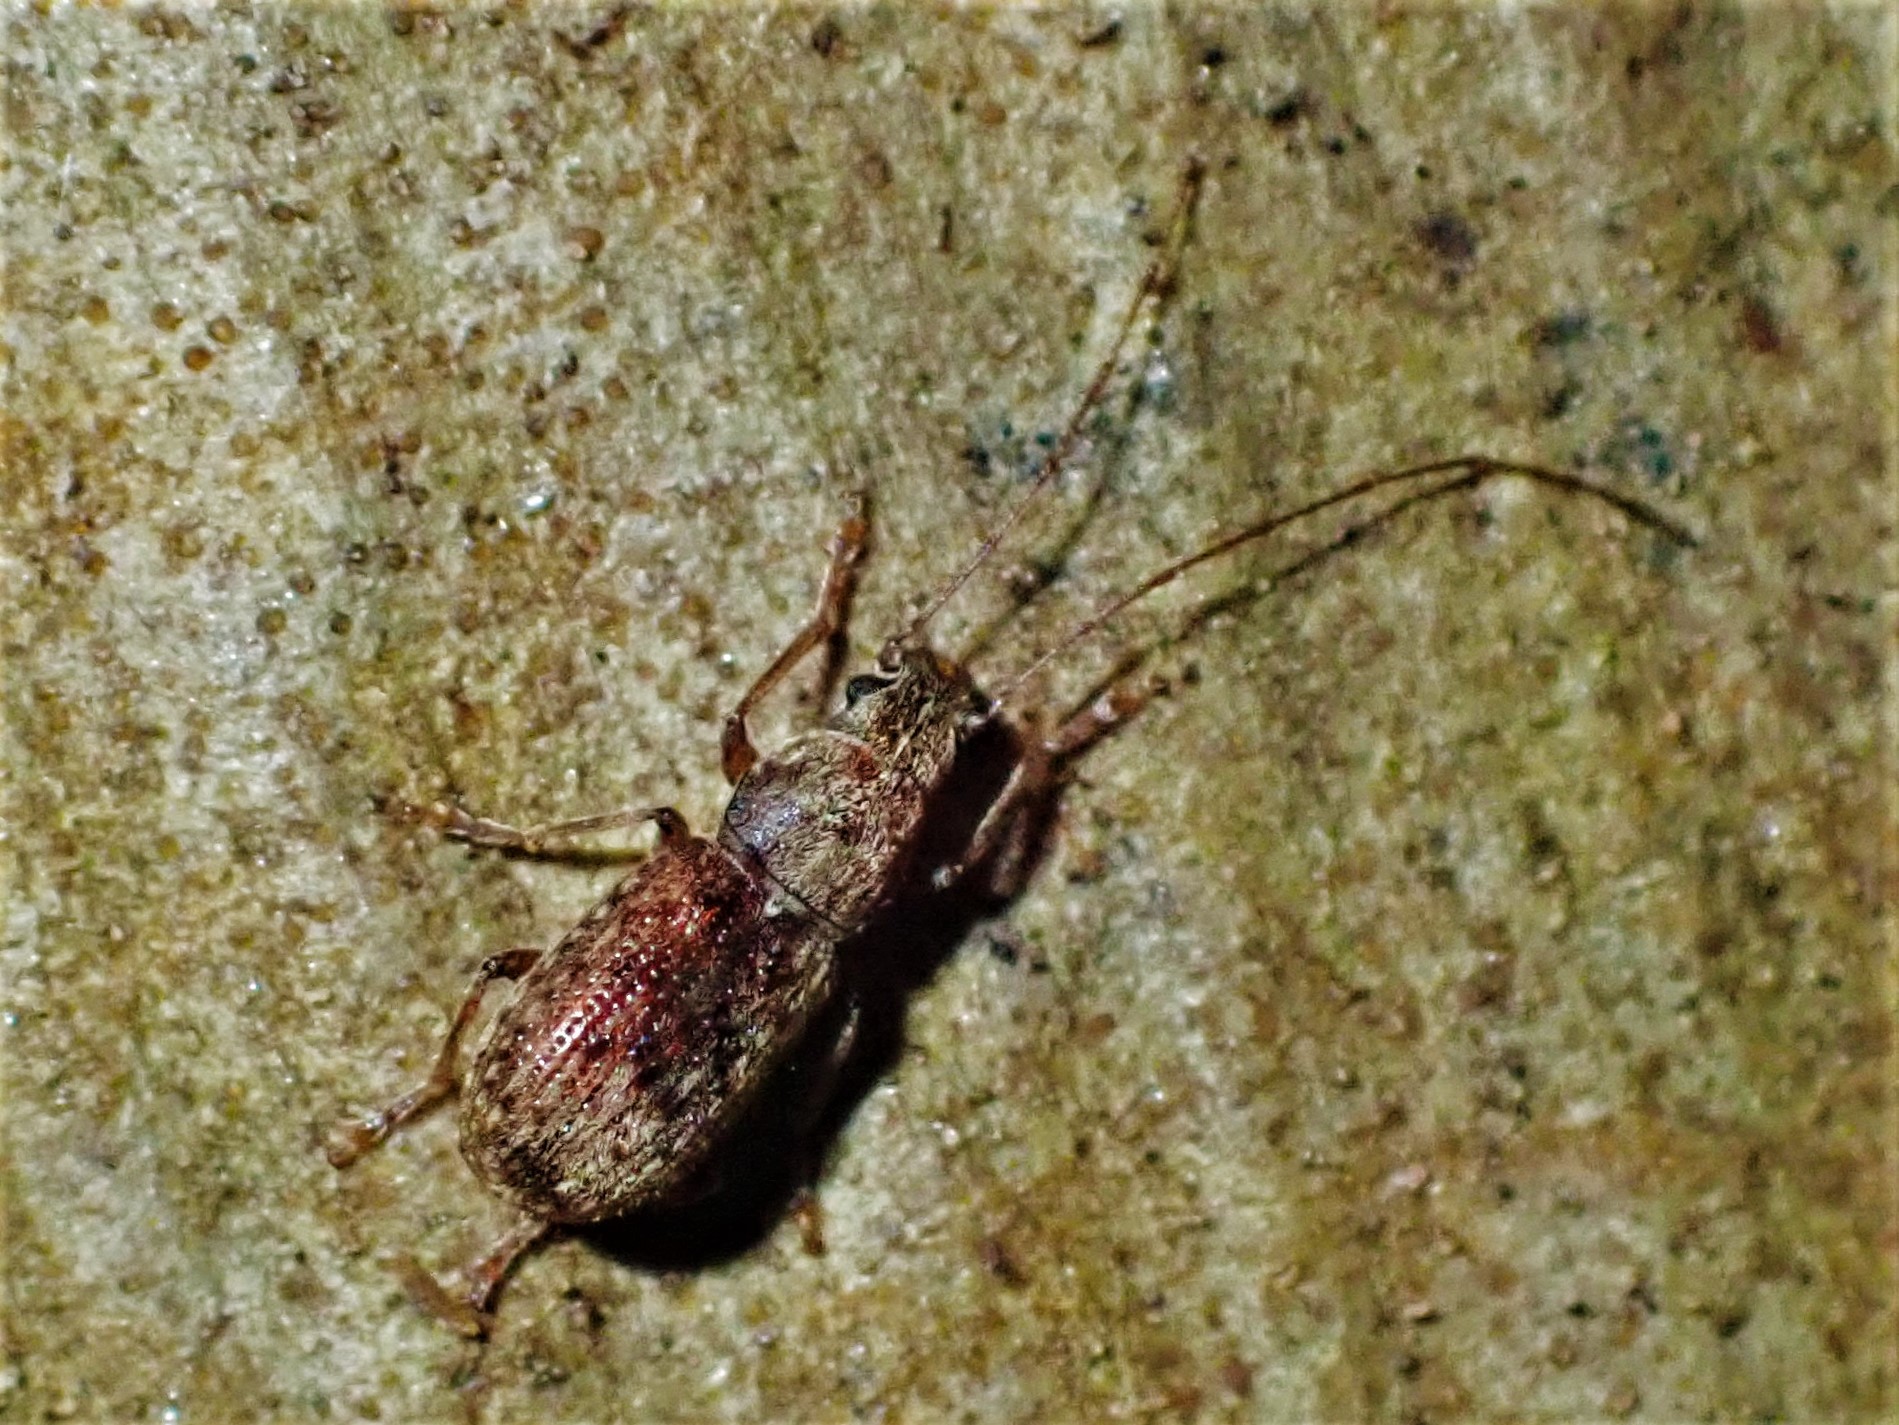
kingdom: Animalia
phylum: Arthropoda
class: Insecta
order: Coleoptera
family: Anthribidae
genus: Arecopais
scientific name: Arecopais spectabilis
